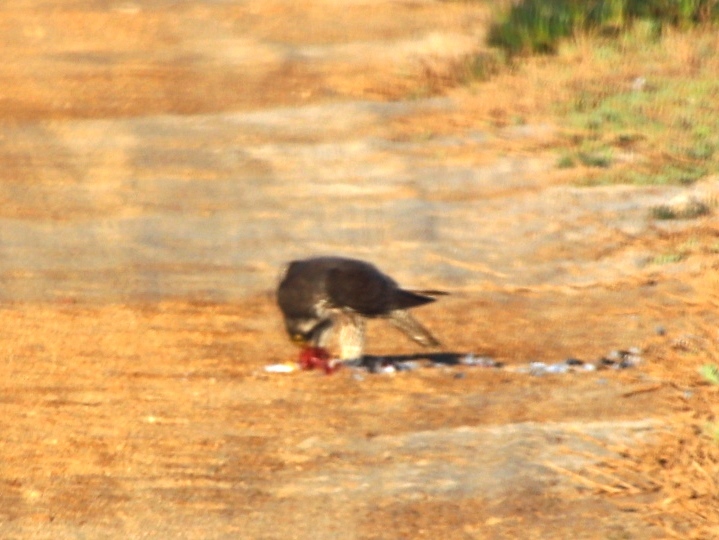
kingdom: Animalia
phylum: Chordata
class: Aves
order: Falconiformes
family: Falconidae
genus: Falco
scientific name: Falco peregrinus
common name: Peregrine falcon
